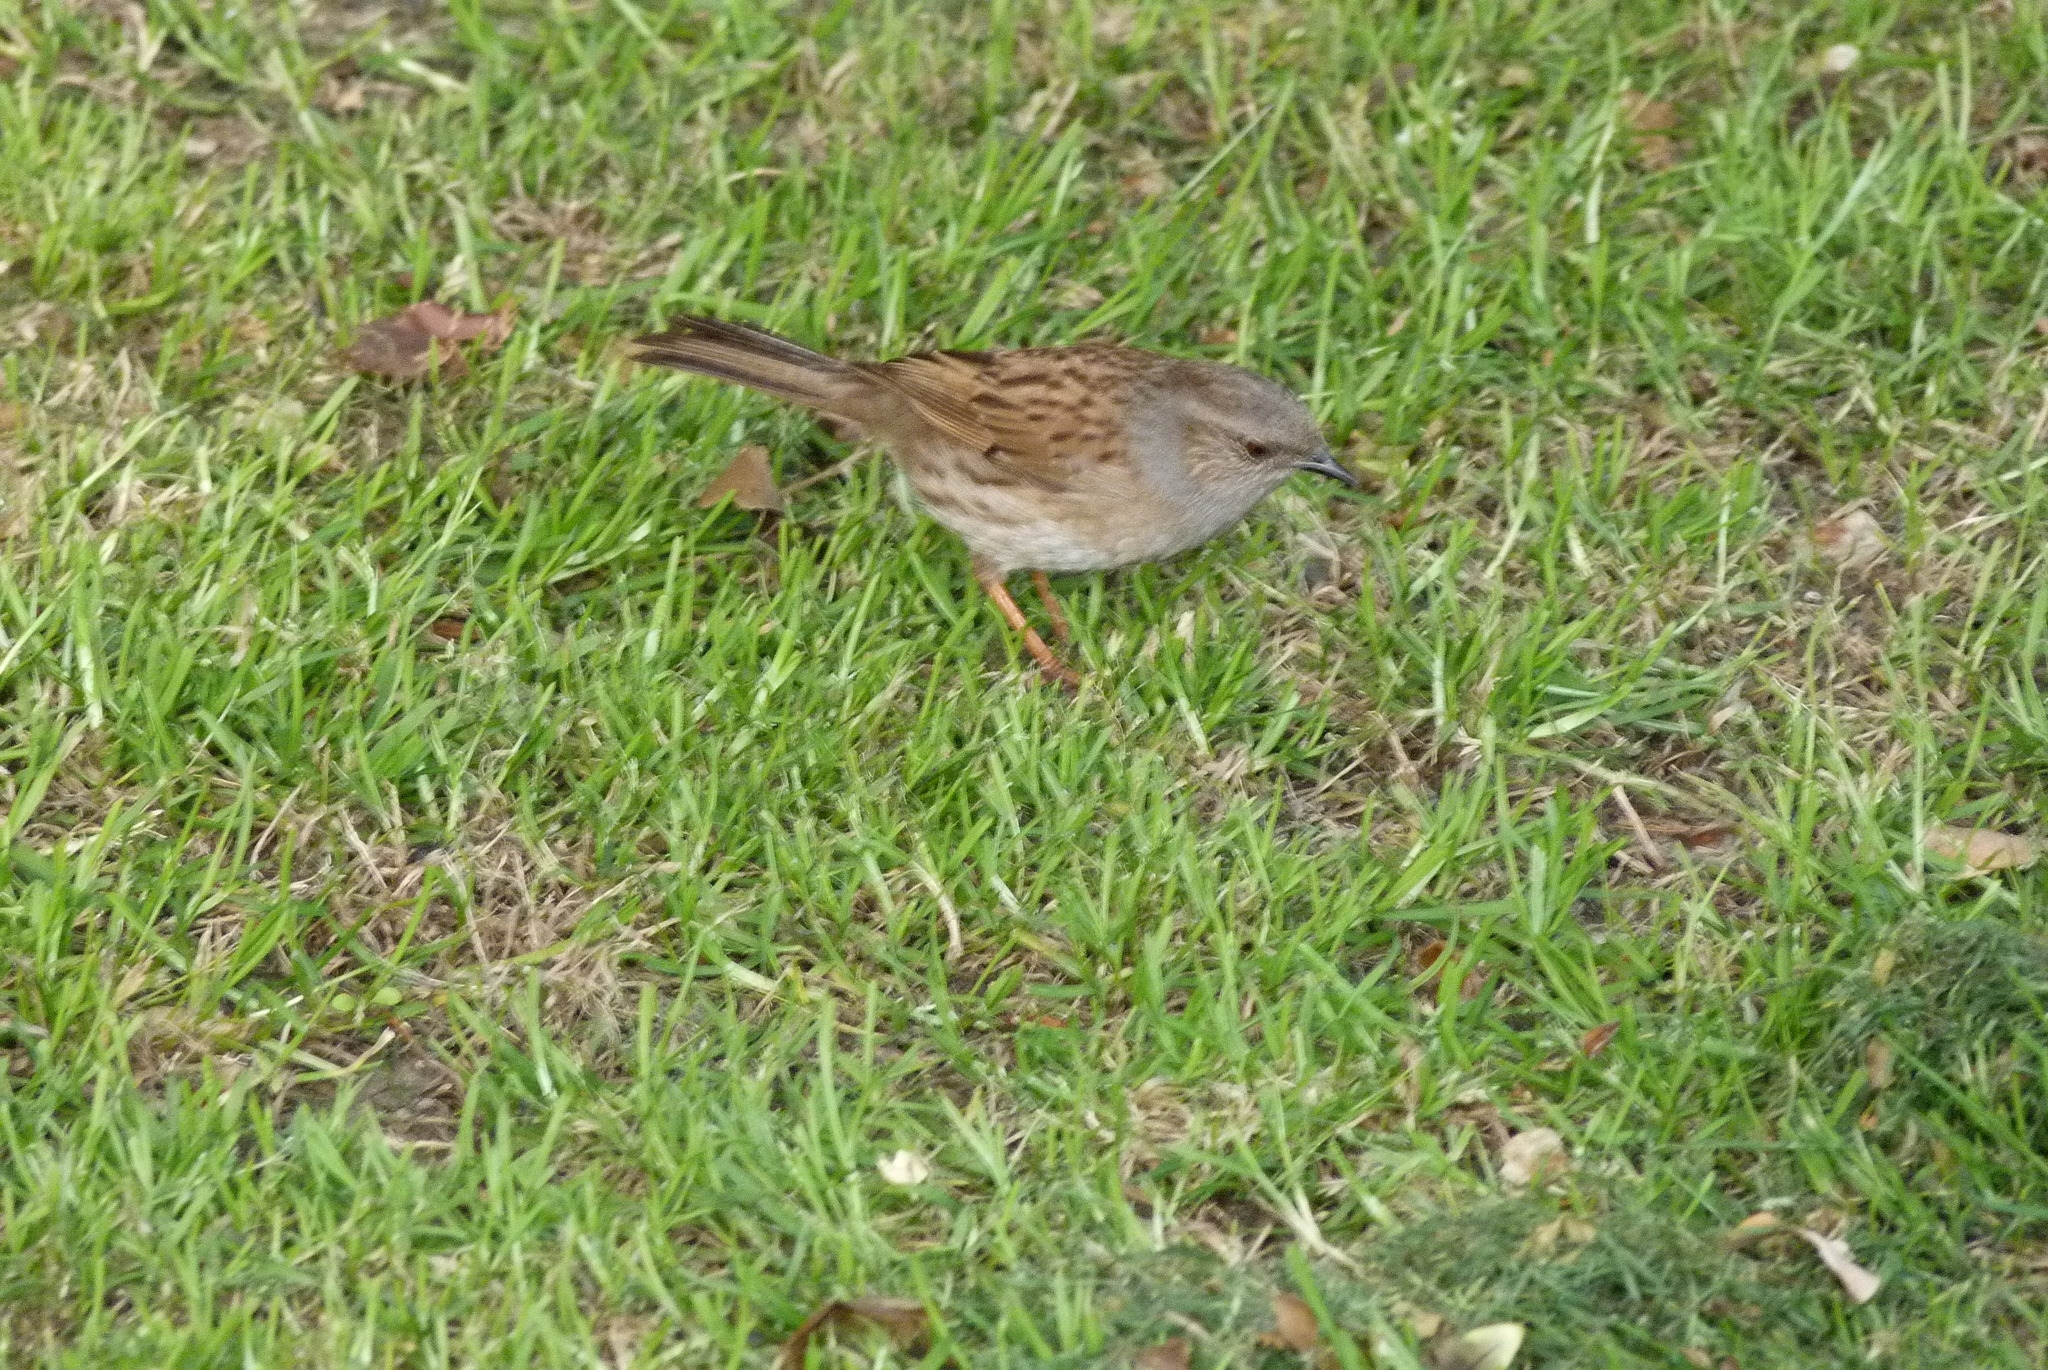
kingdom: Animalia
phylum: Chordata
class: Aves
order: Passeriformes
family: Prunellidae
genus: Prunella
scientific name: Prunella modularis
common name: Dunnock
